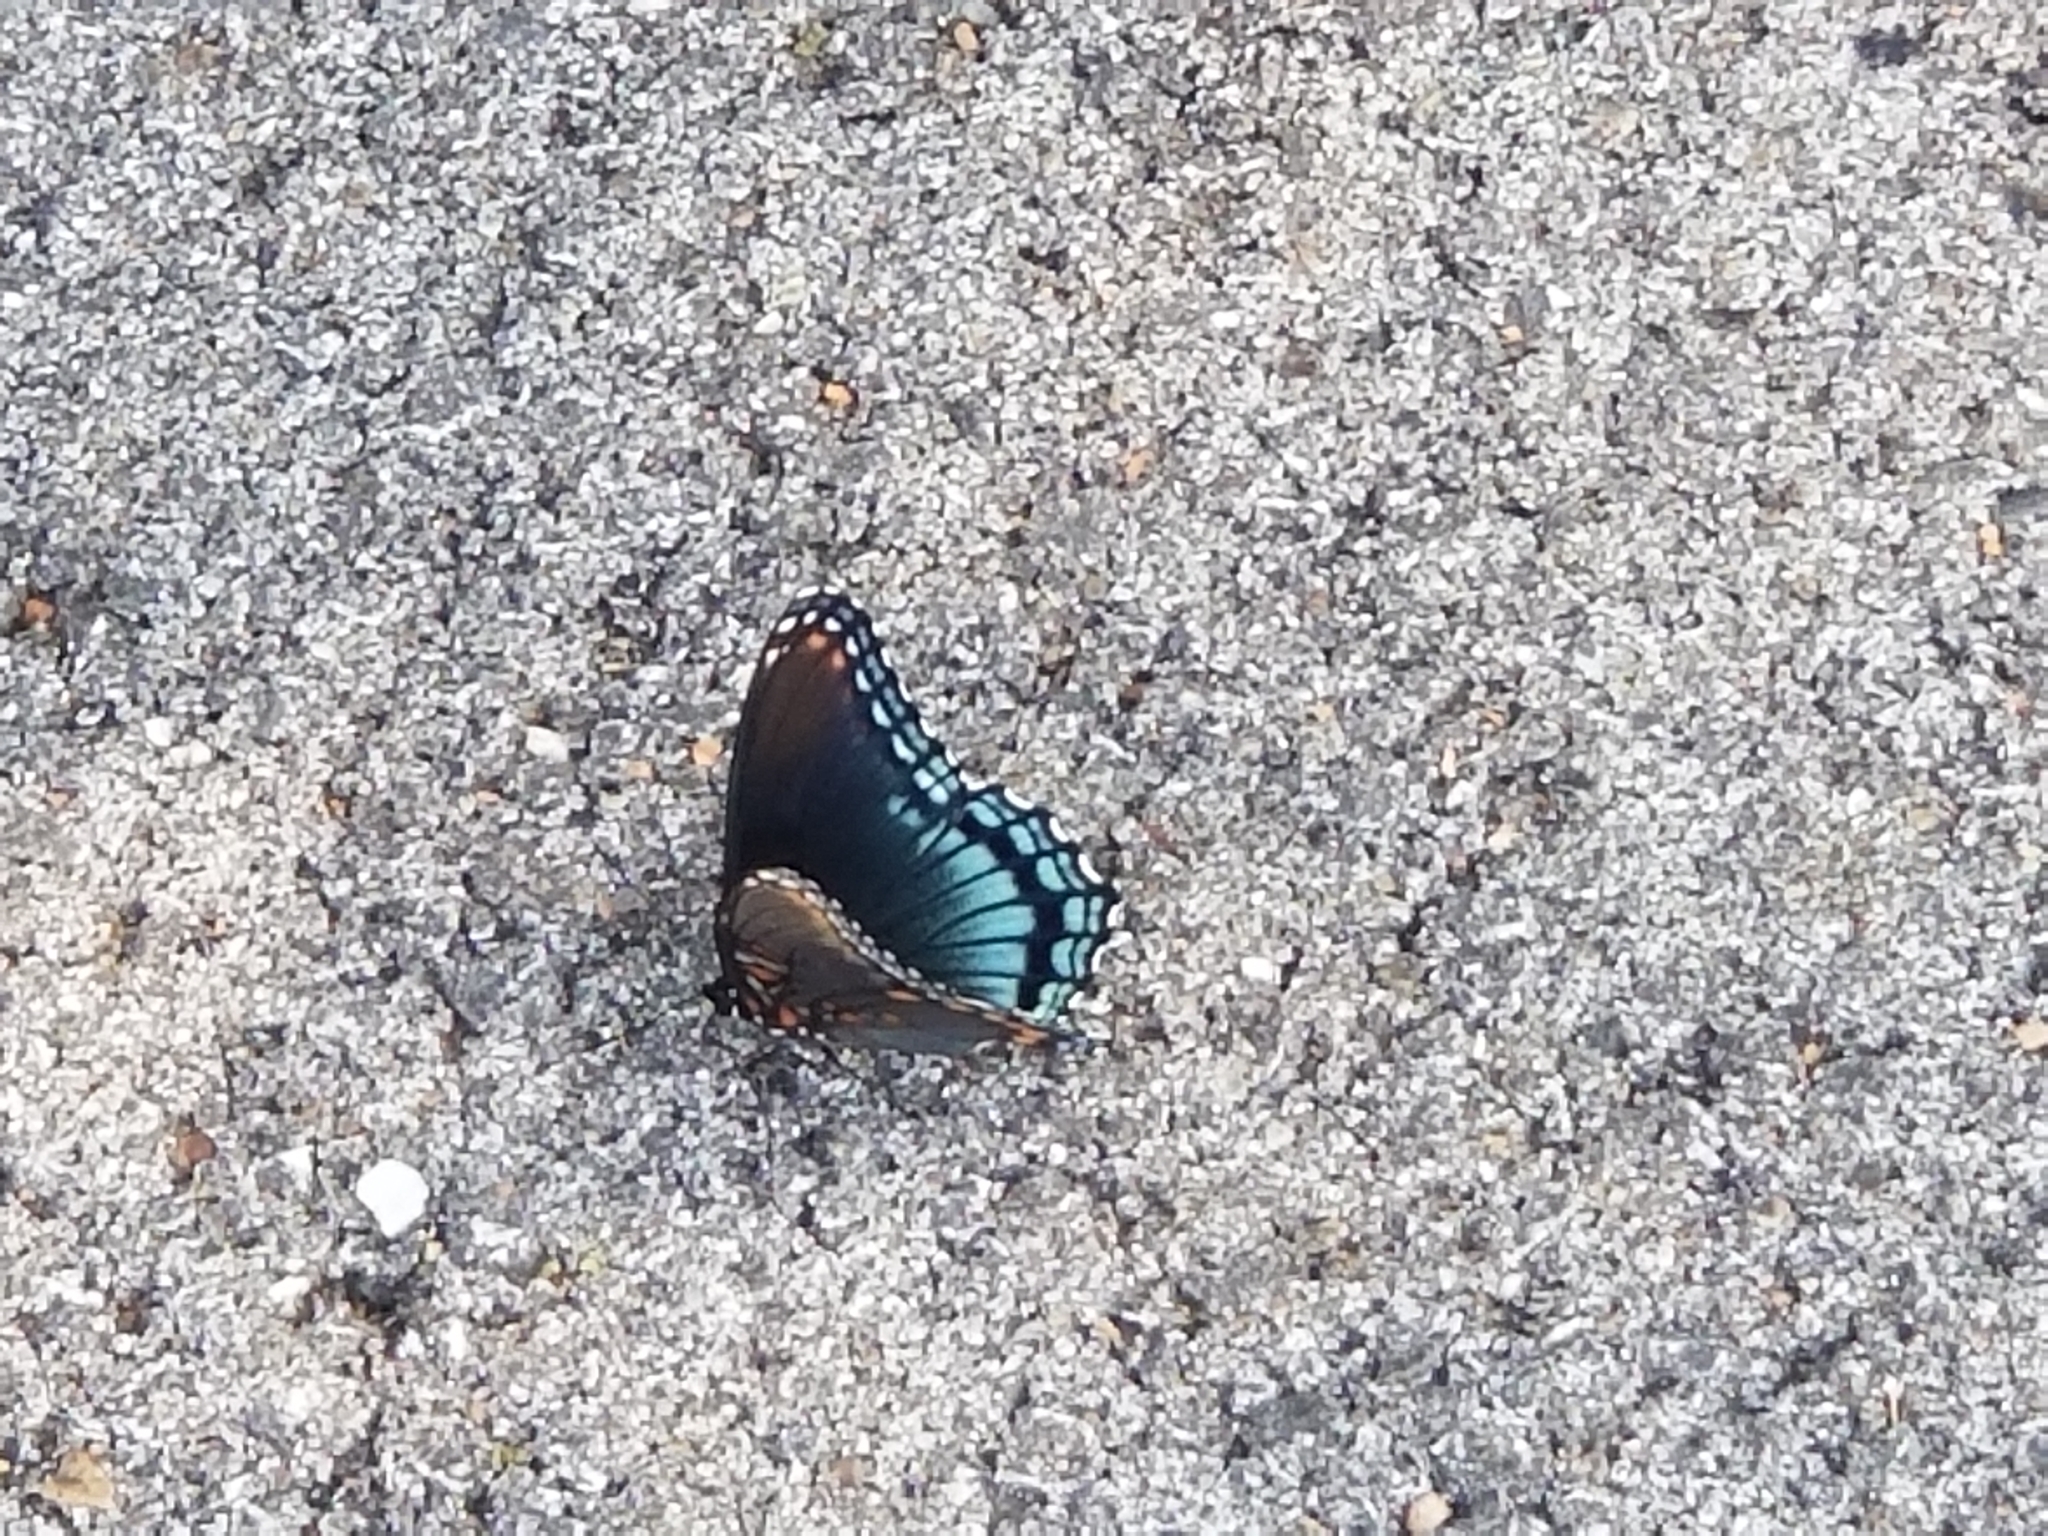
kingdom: Animalia
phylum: Arthropoda
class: Insecta
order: Lepidoptera
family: Nymphalidae
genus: Limenitis
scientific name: Limenitis astyanax
